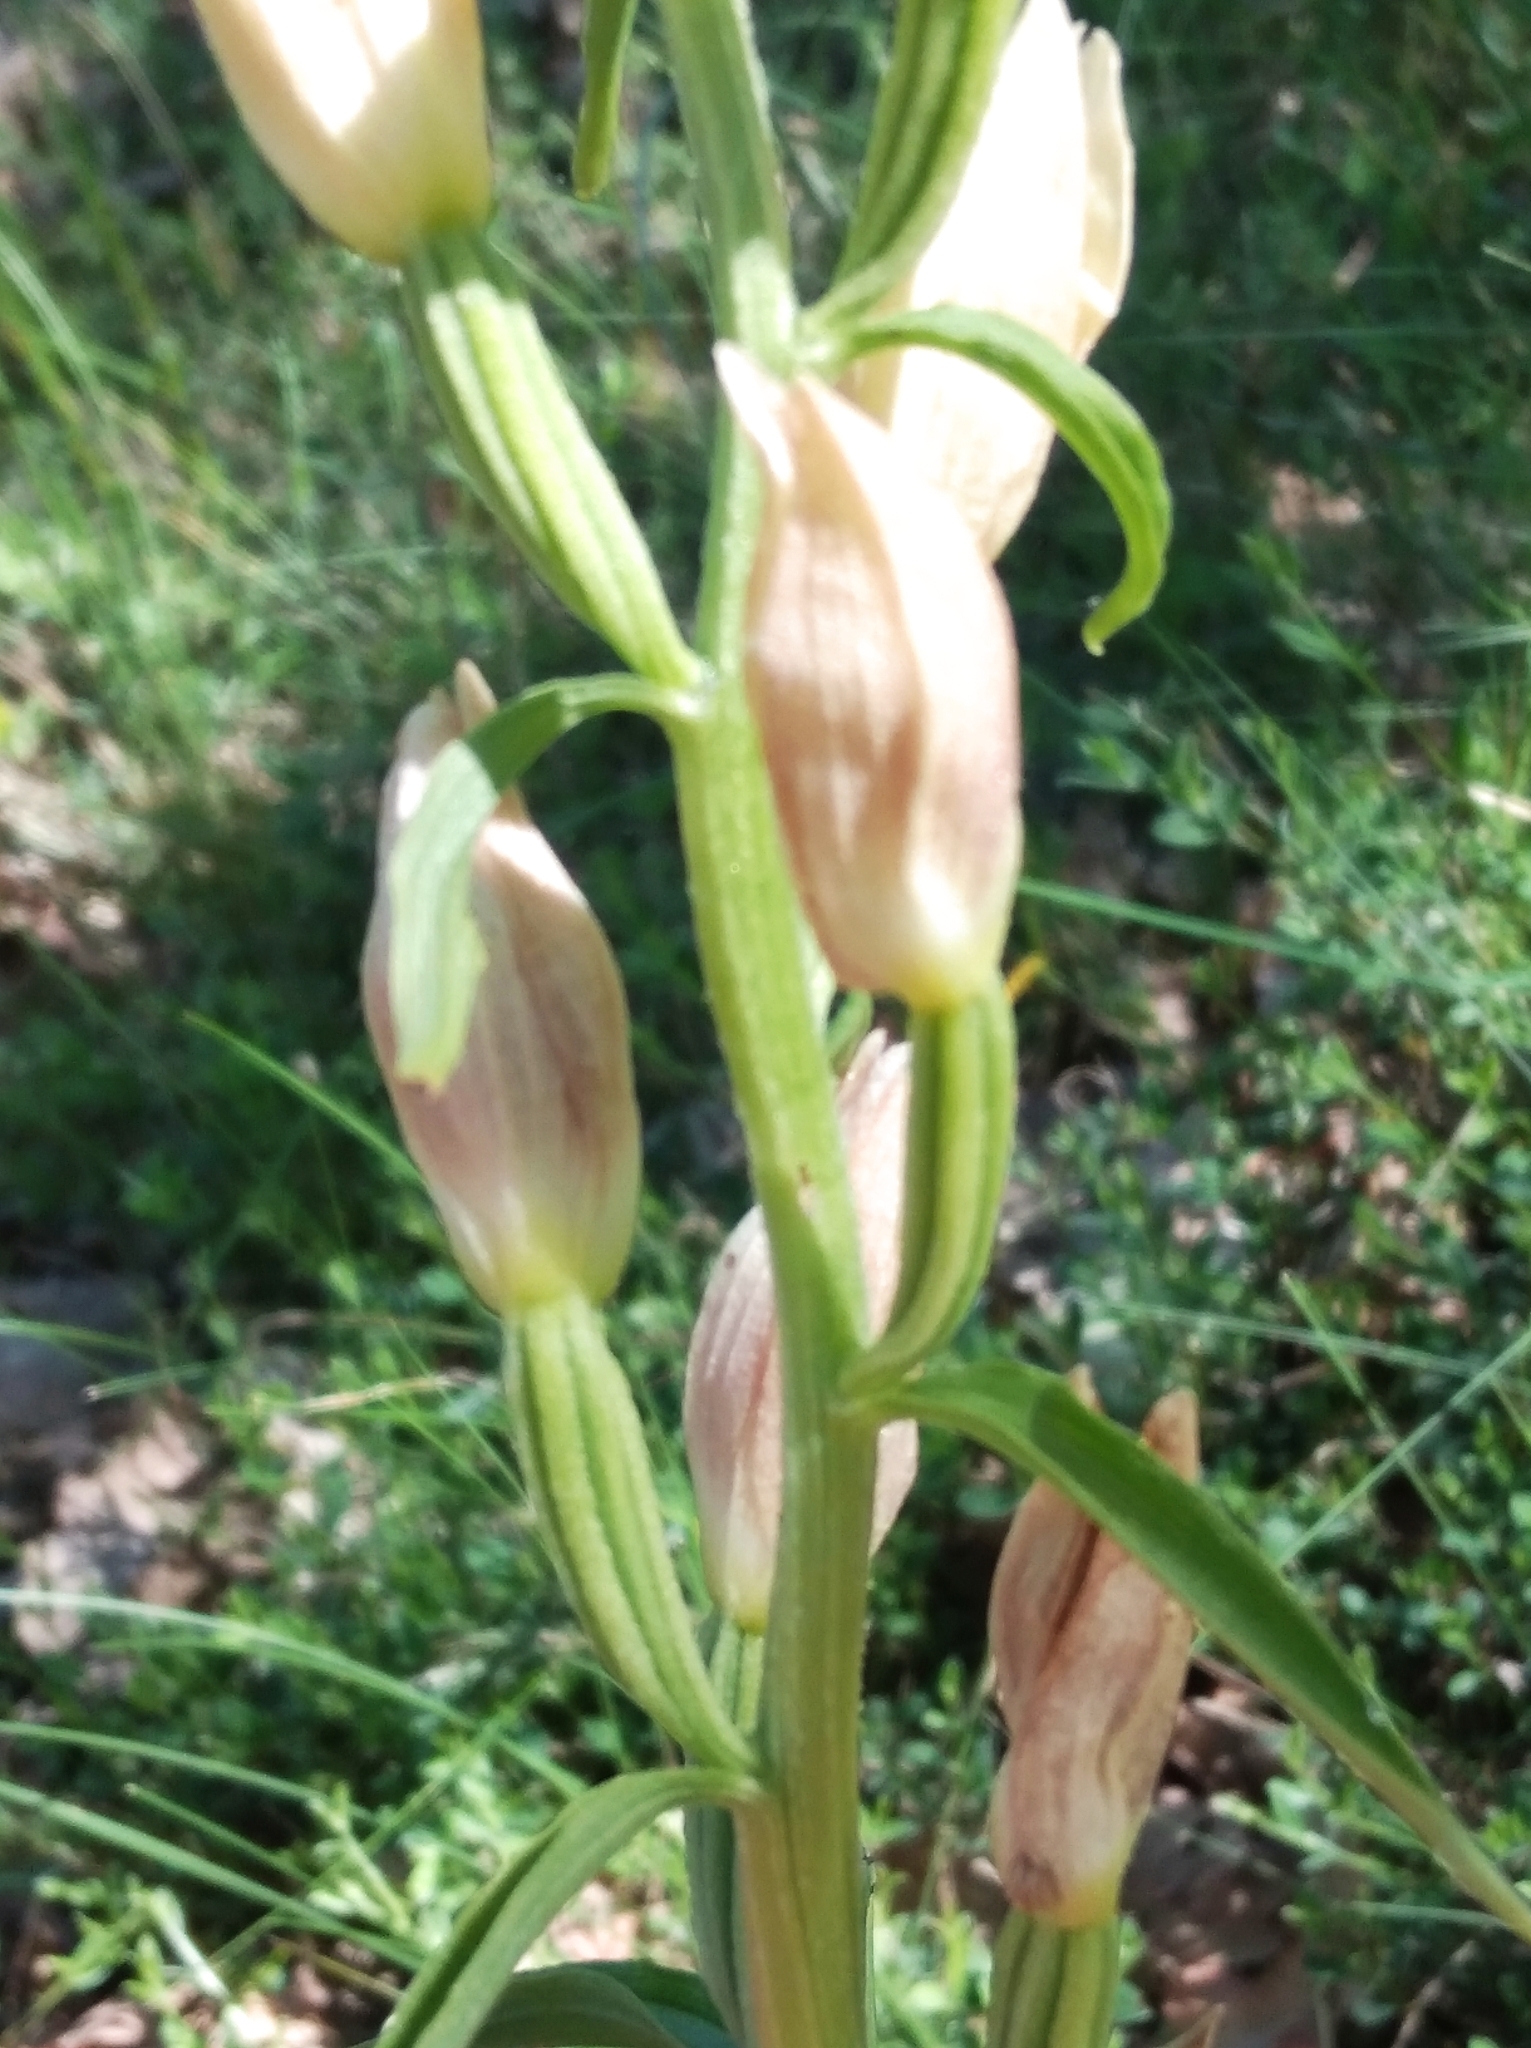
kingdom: Plantae
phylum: Tracheophyta
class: Liliopsida
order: Asparagales
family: Orchidaceae
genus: Cephalanthera
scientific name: Cephalanthera damasonium
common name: White helleborine
